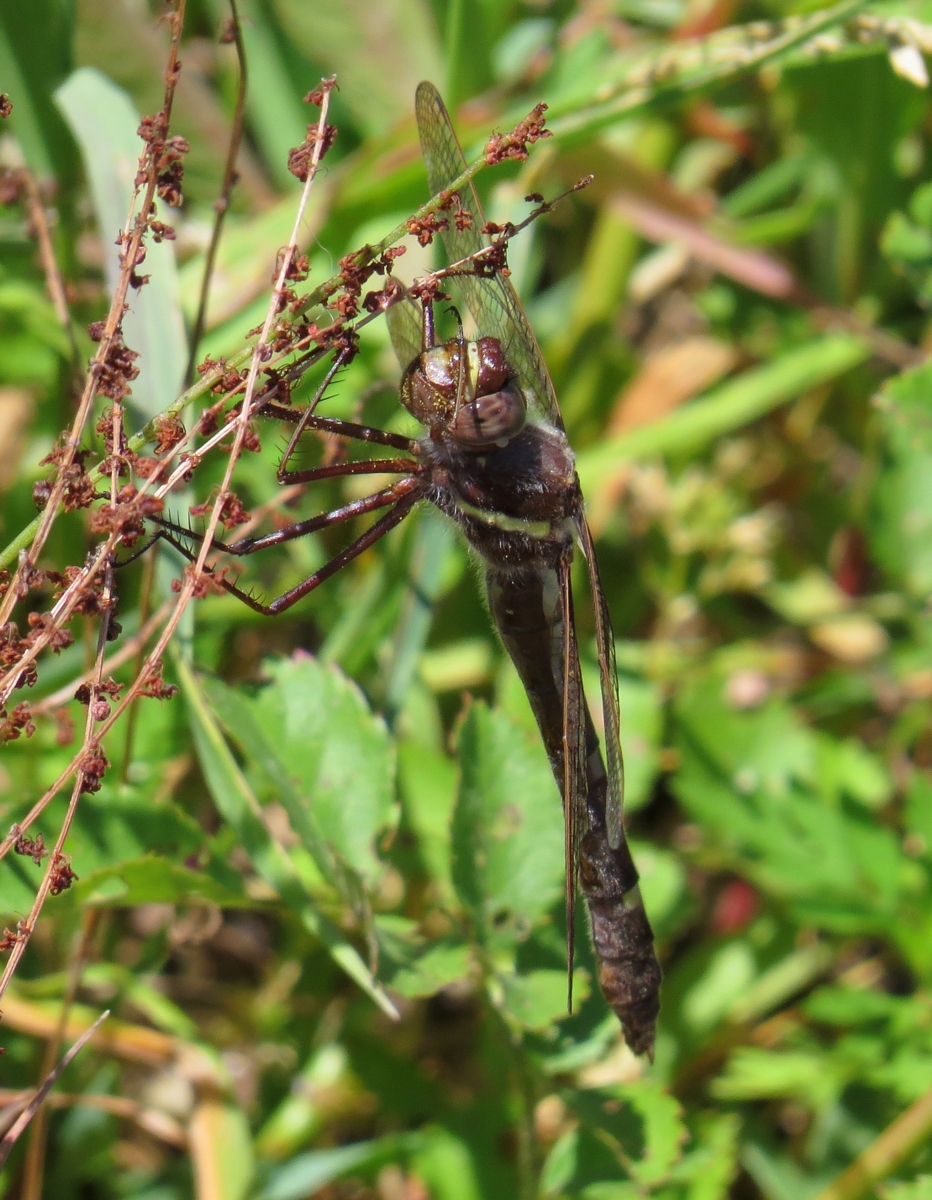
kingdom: Animalia
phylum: Arthropoda
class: Insecta
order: Odonata
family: Macromiidae
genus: Didymops
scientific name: Didymops transversa
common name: Stream cruiser
